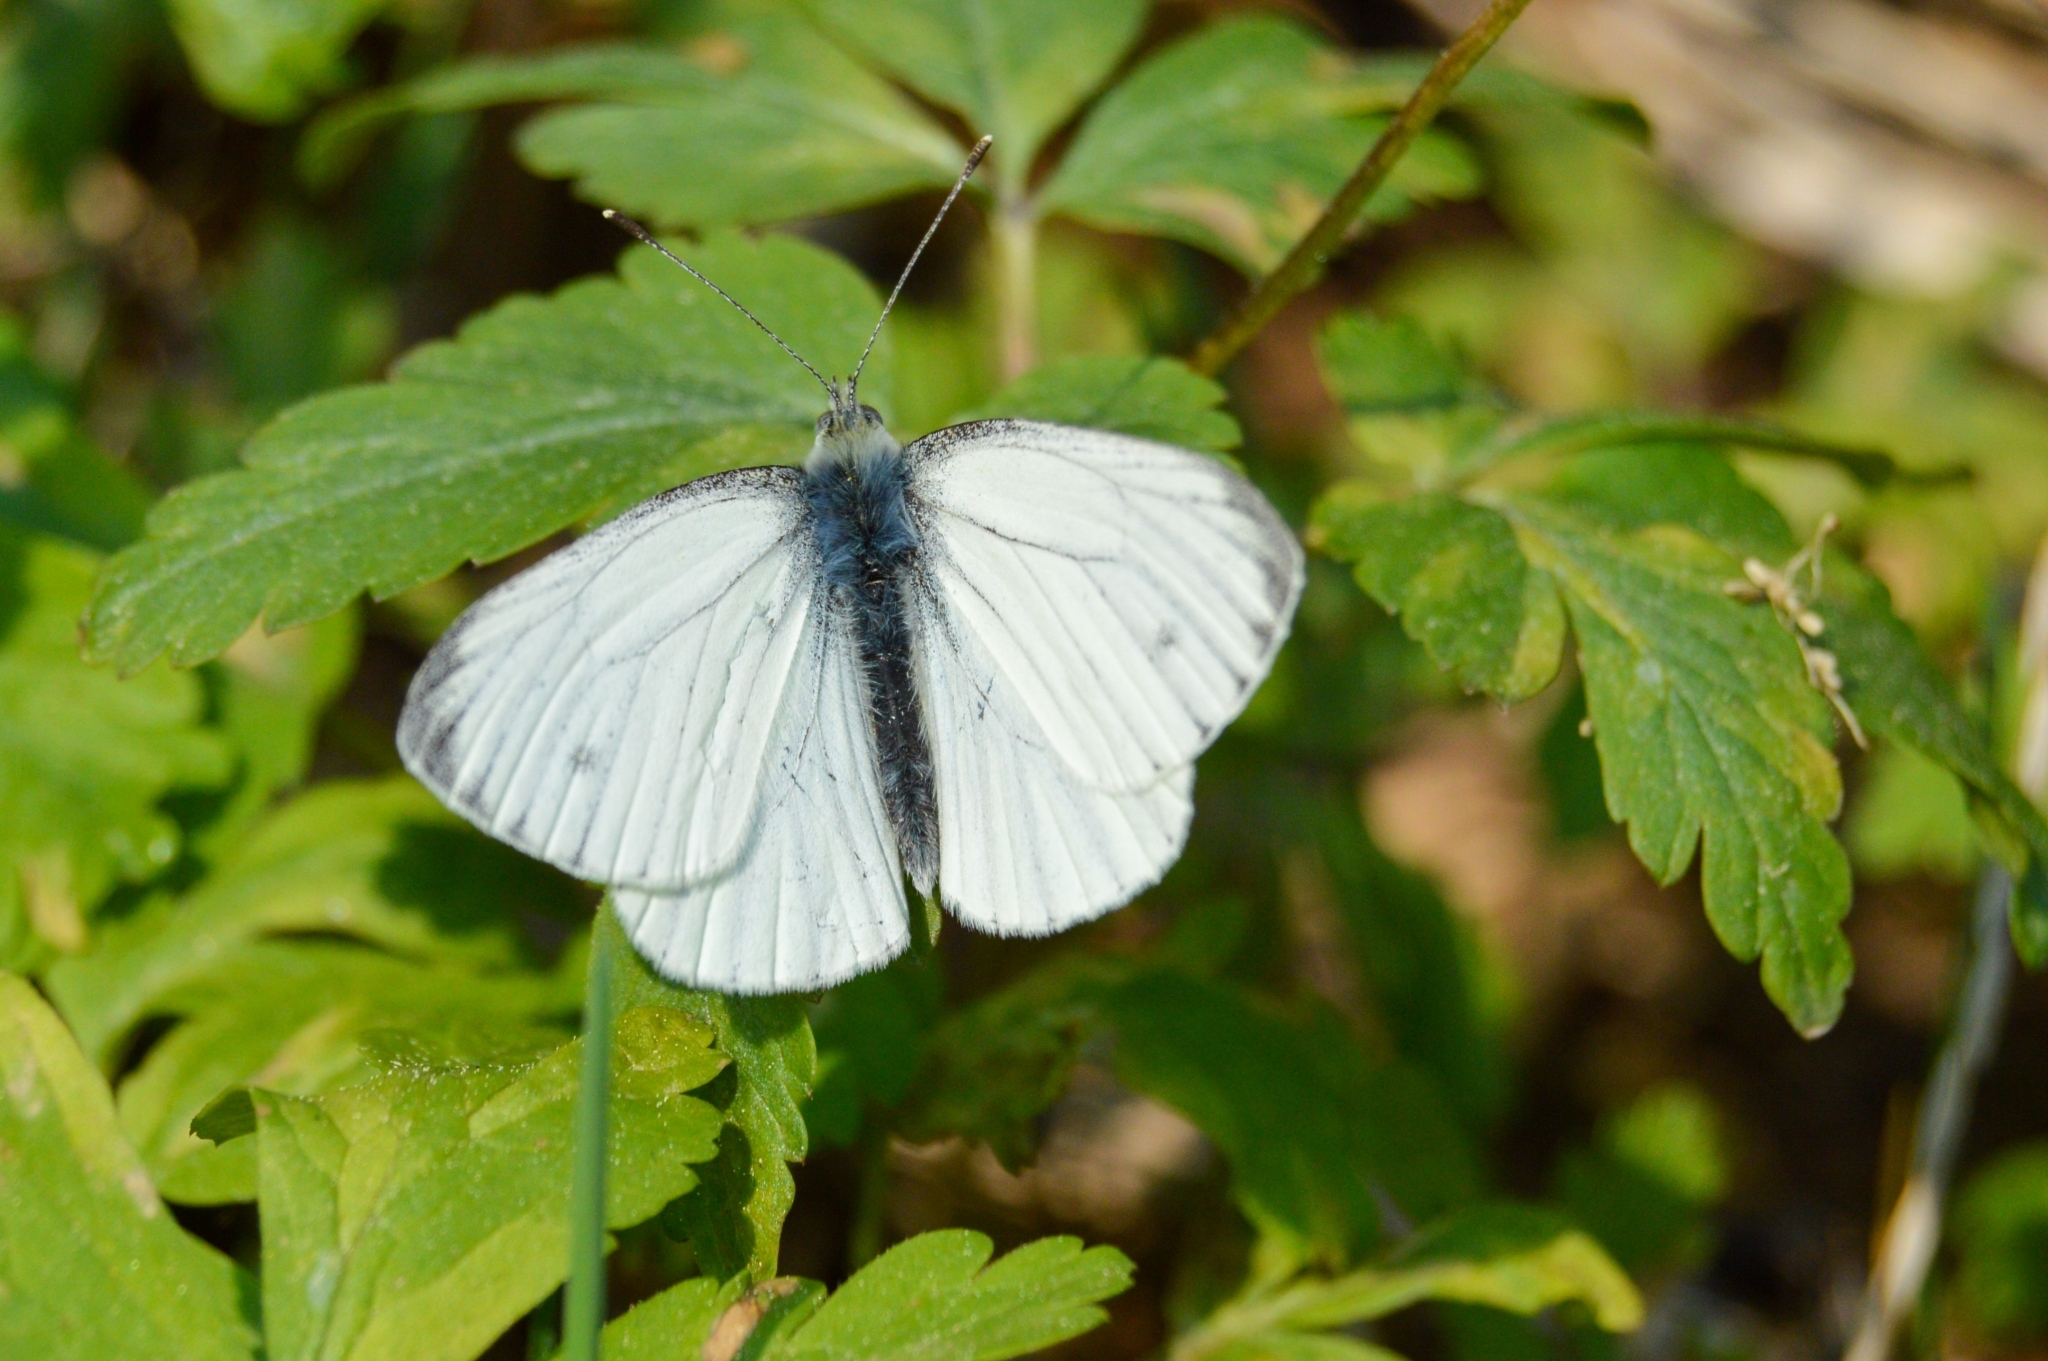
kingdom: Animalia
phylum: Arthropoda
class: Insecta
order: Lepidoptera
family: Pieridae
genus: Pieris
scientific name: Pieris napi
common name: Green-veined white
